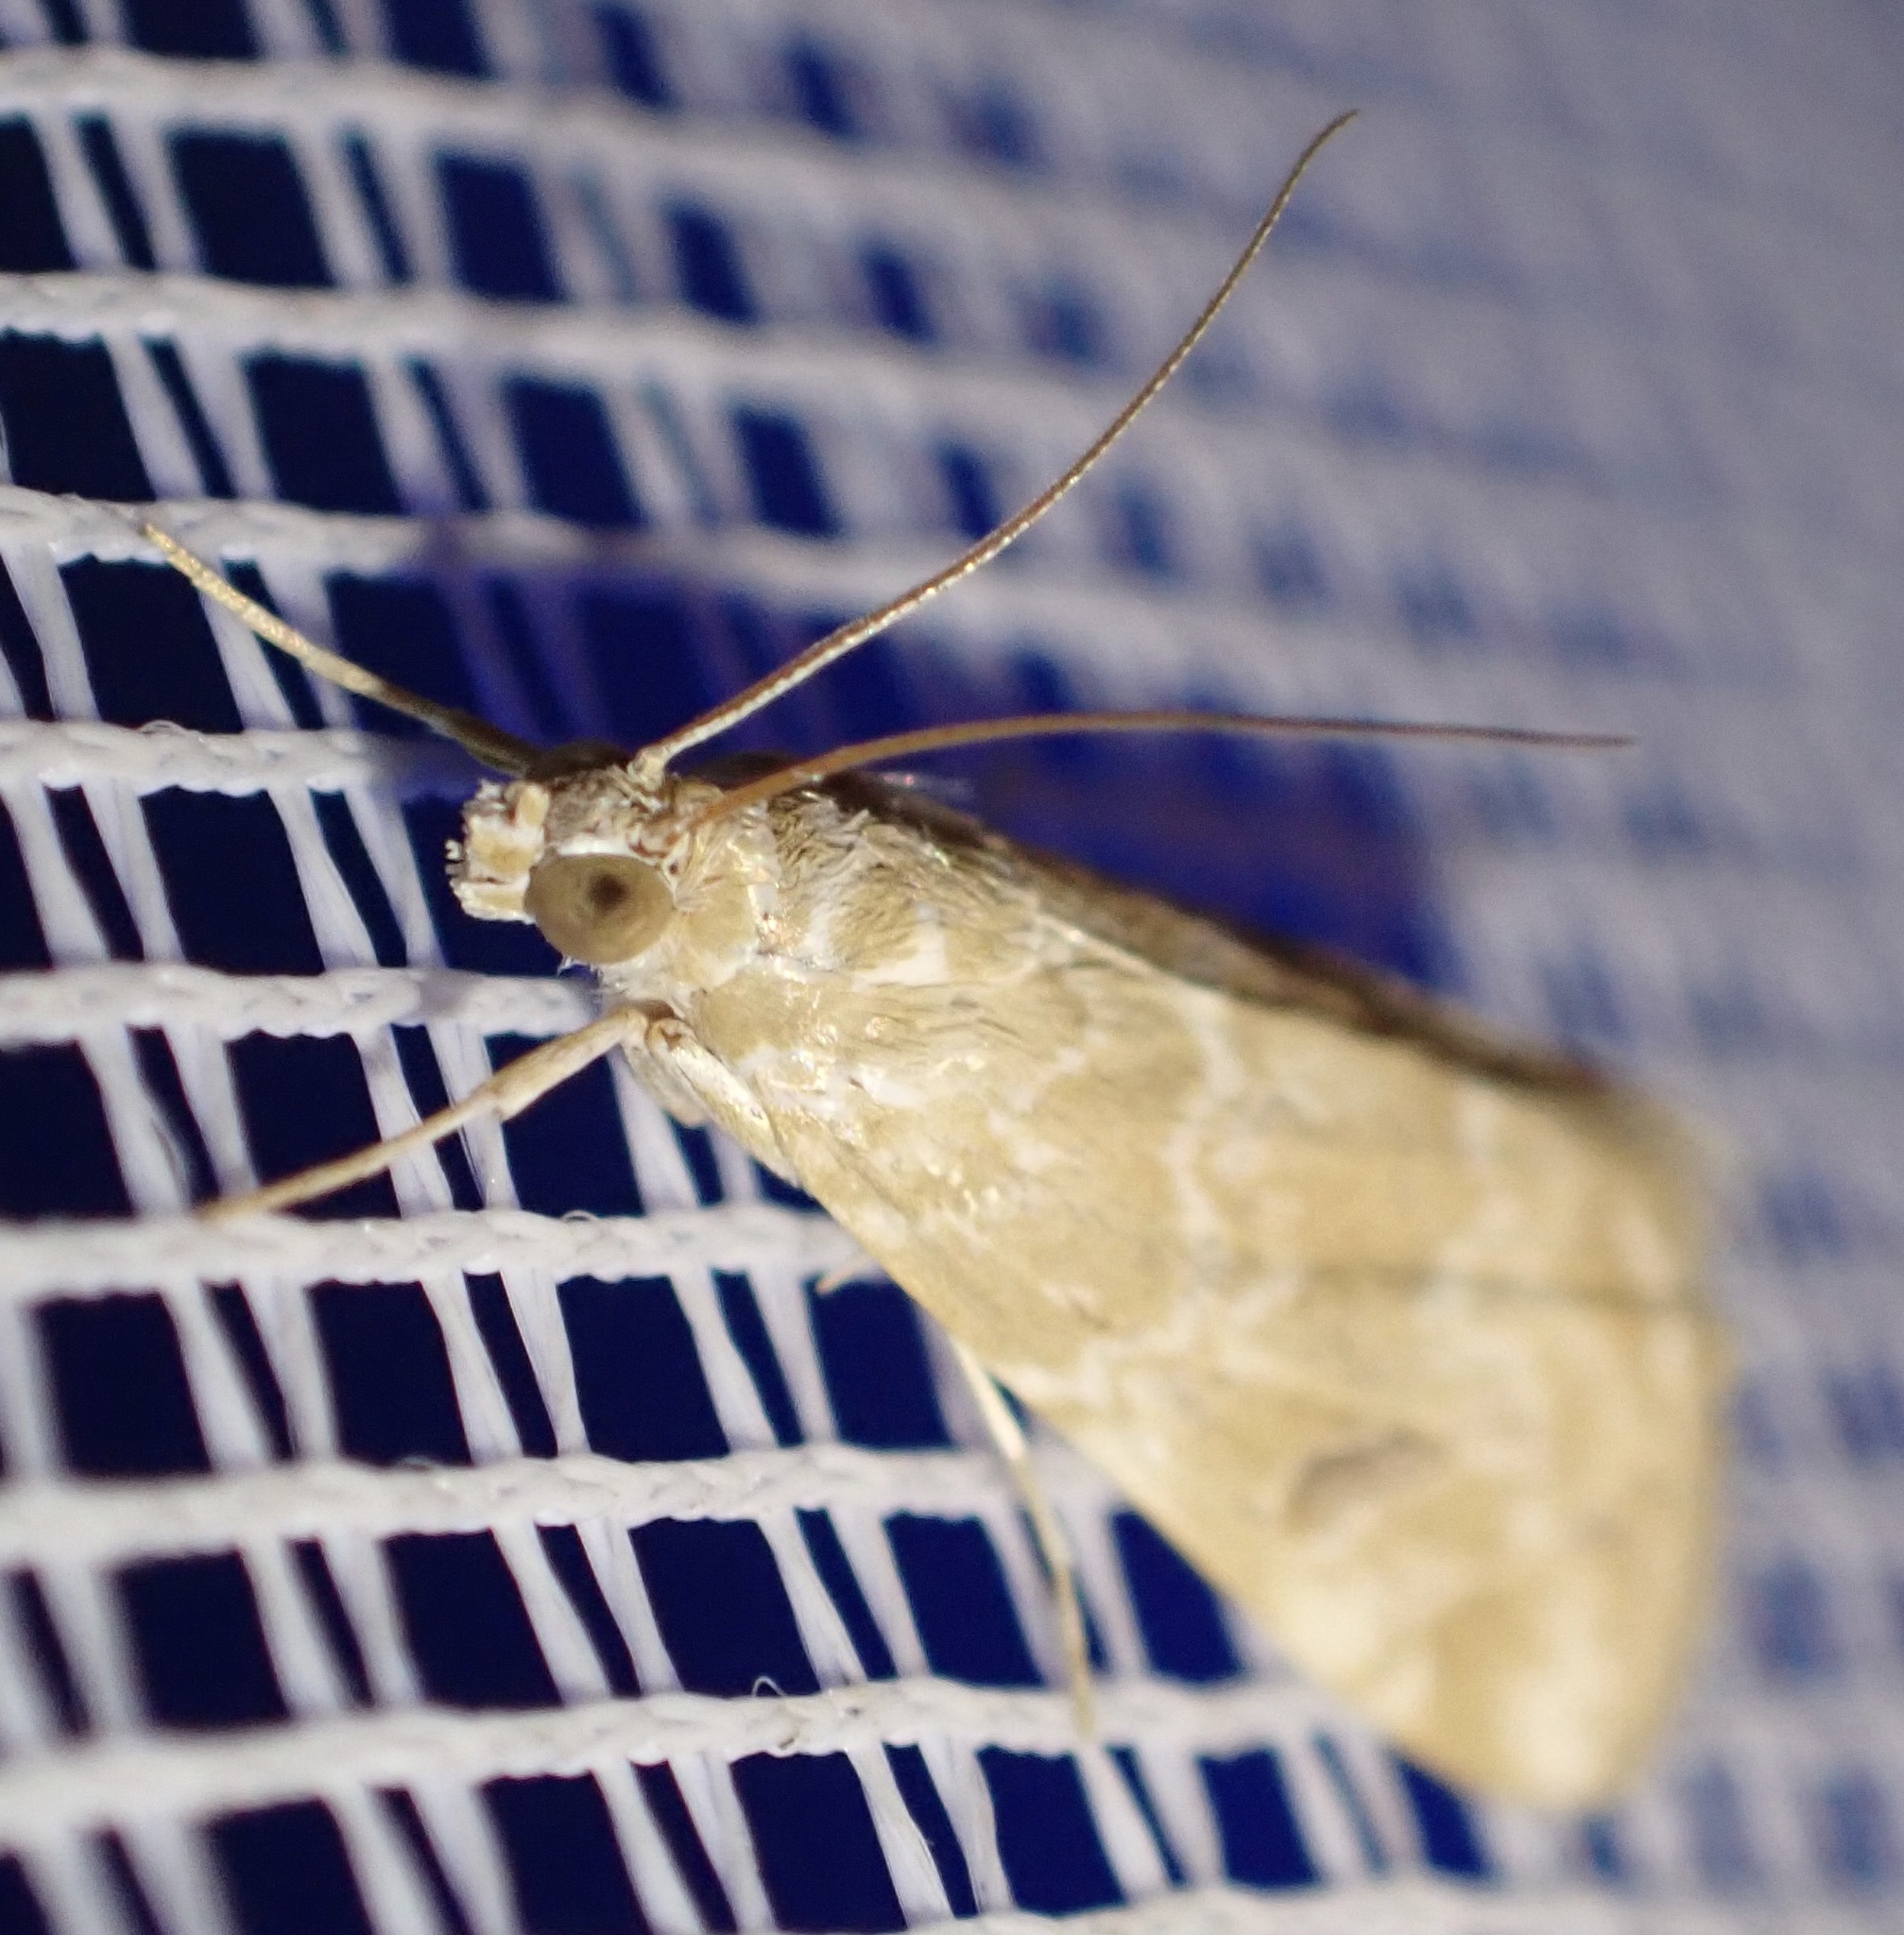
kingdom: Animalia
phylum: Arthropoda
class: Insecta
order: Lepidoptera
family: Crambidae
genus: Hellula
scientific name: Hellula undalis
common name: Cabbage webworm
